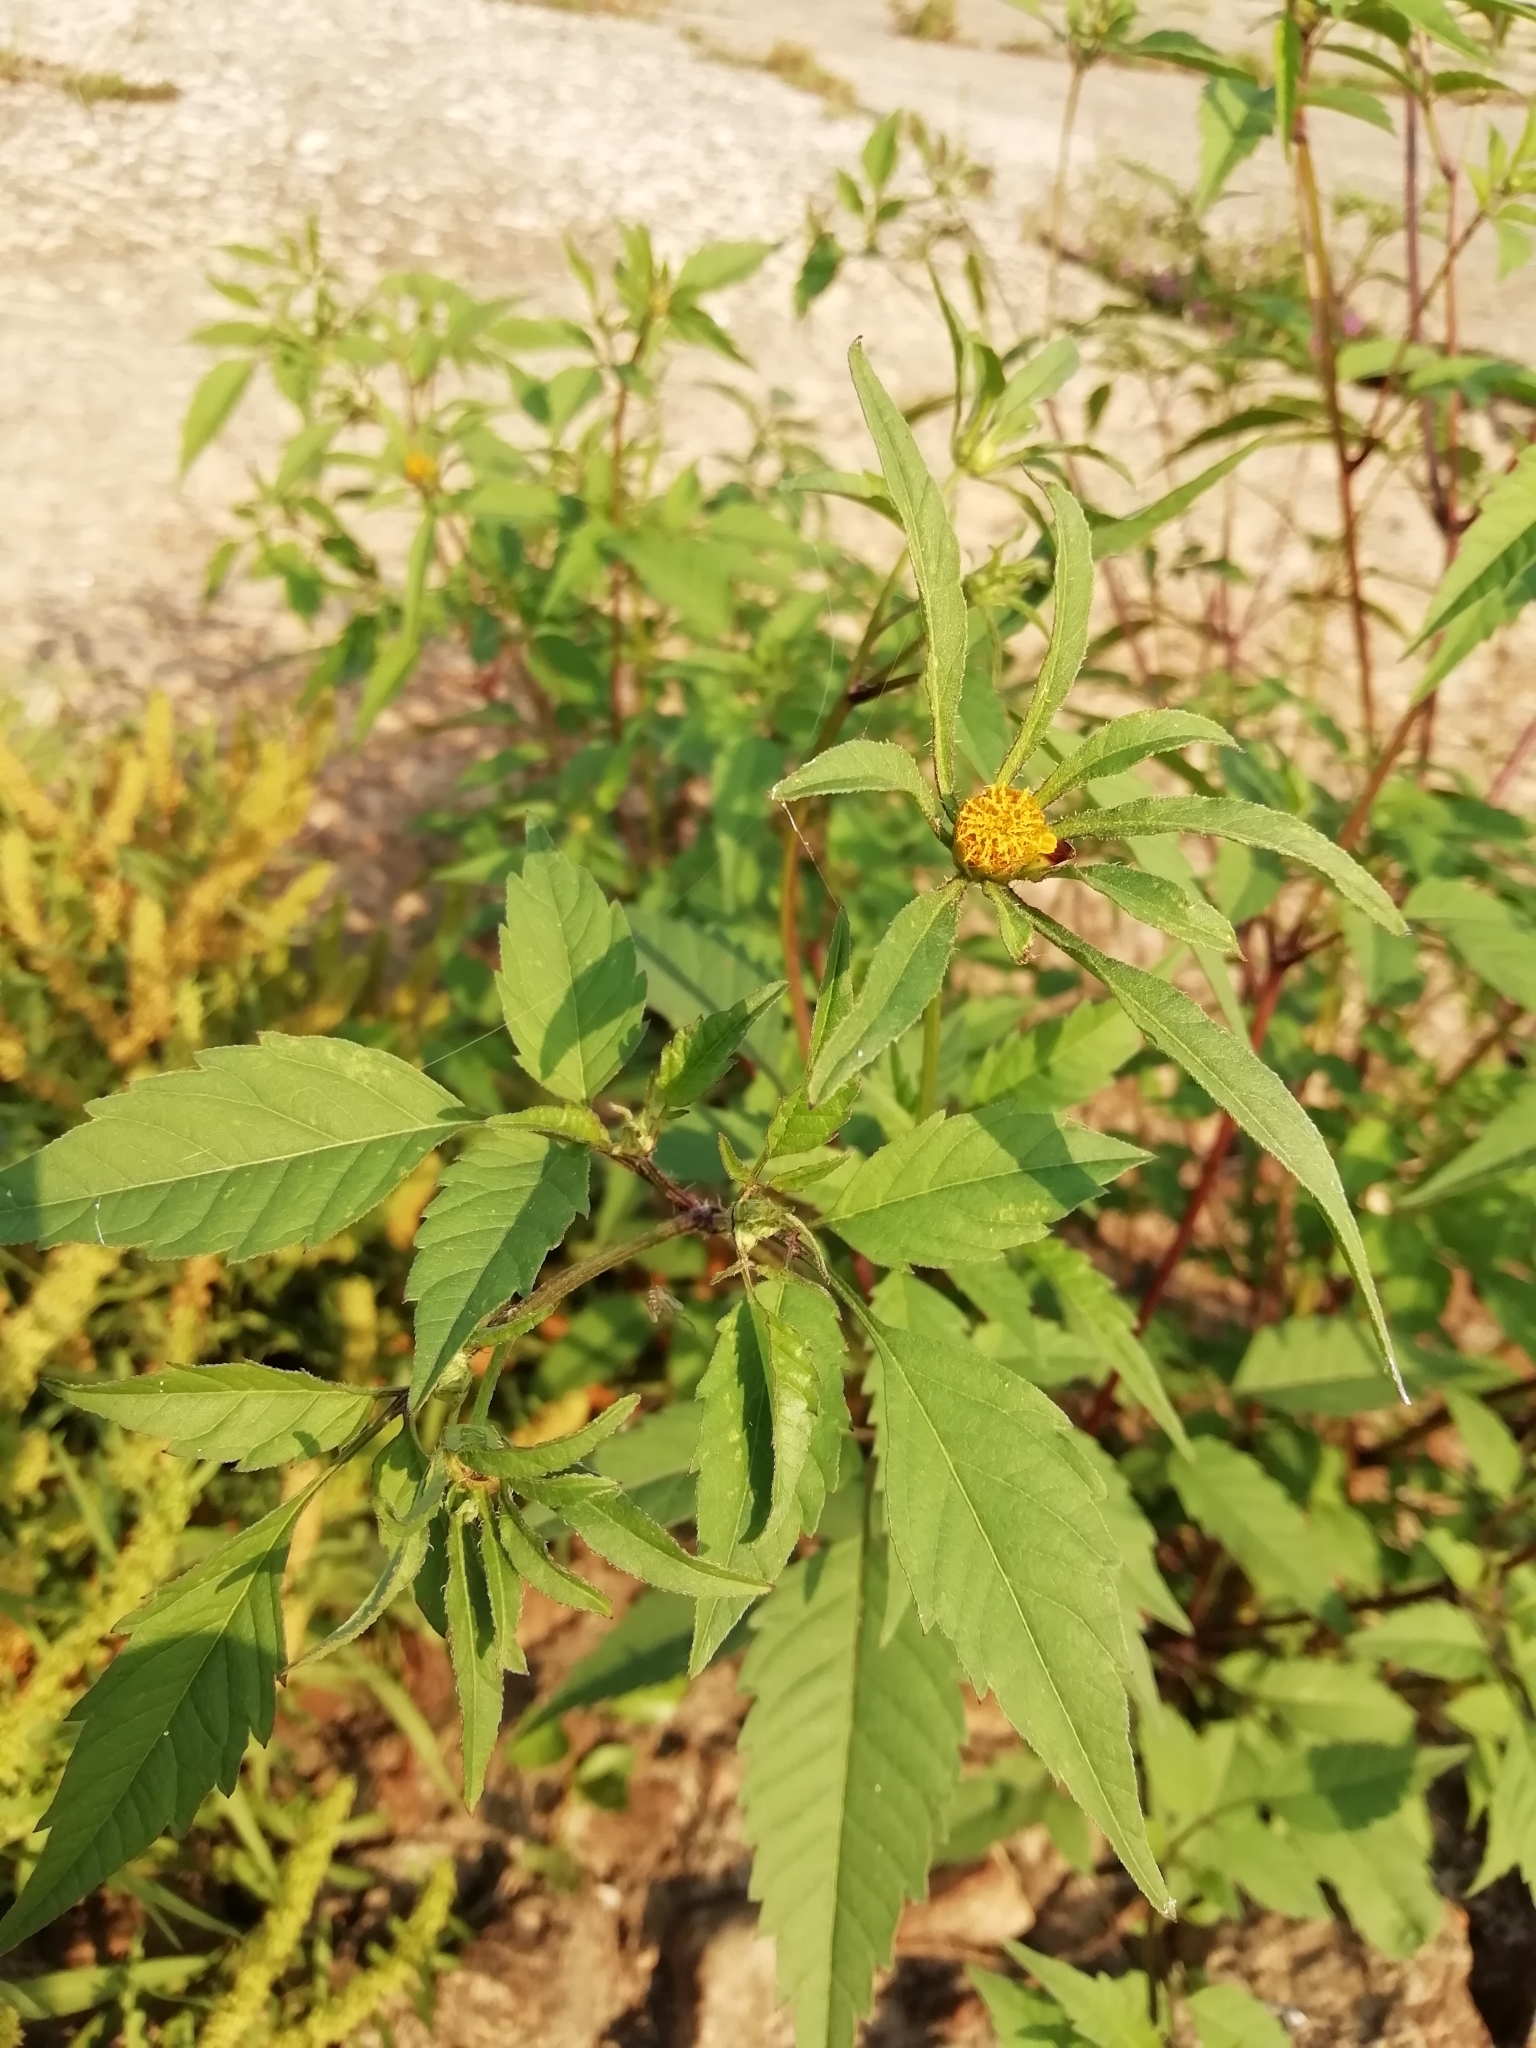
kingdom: Plantae
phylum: Tracheophyta
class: Magnoliopsida
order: Asterales
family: Asteraceae
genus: Bidens
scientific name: Bidens frondosa
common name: Beggarticks
